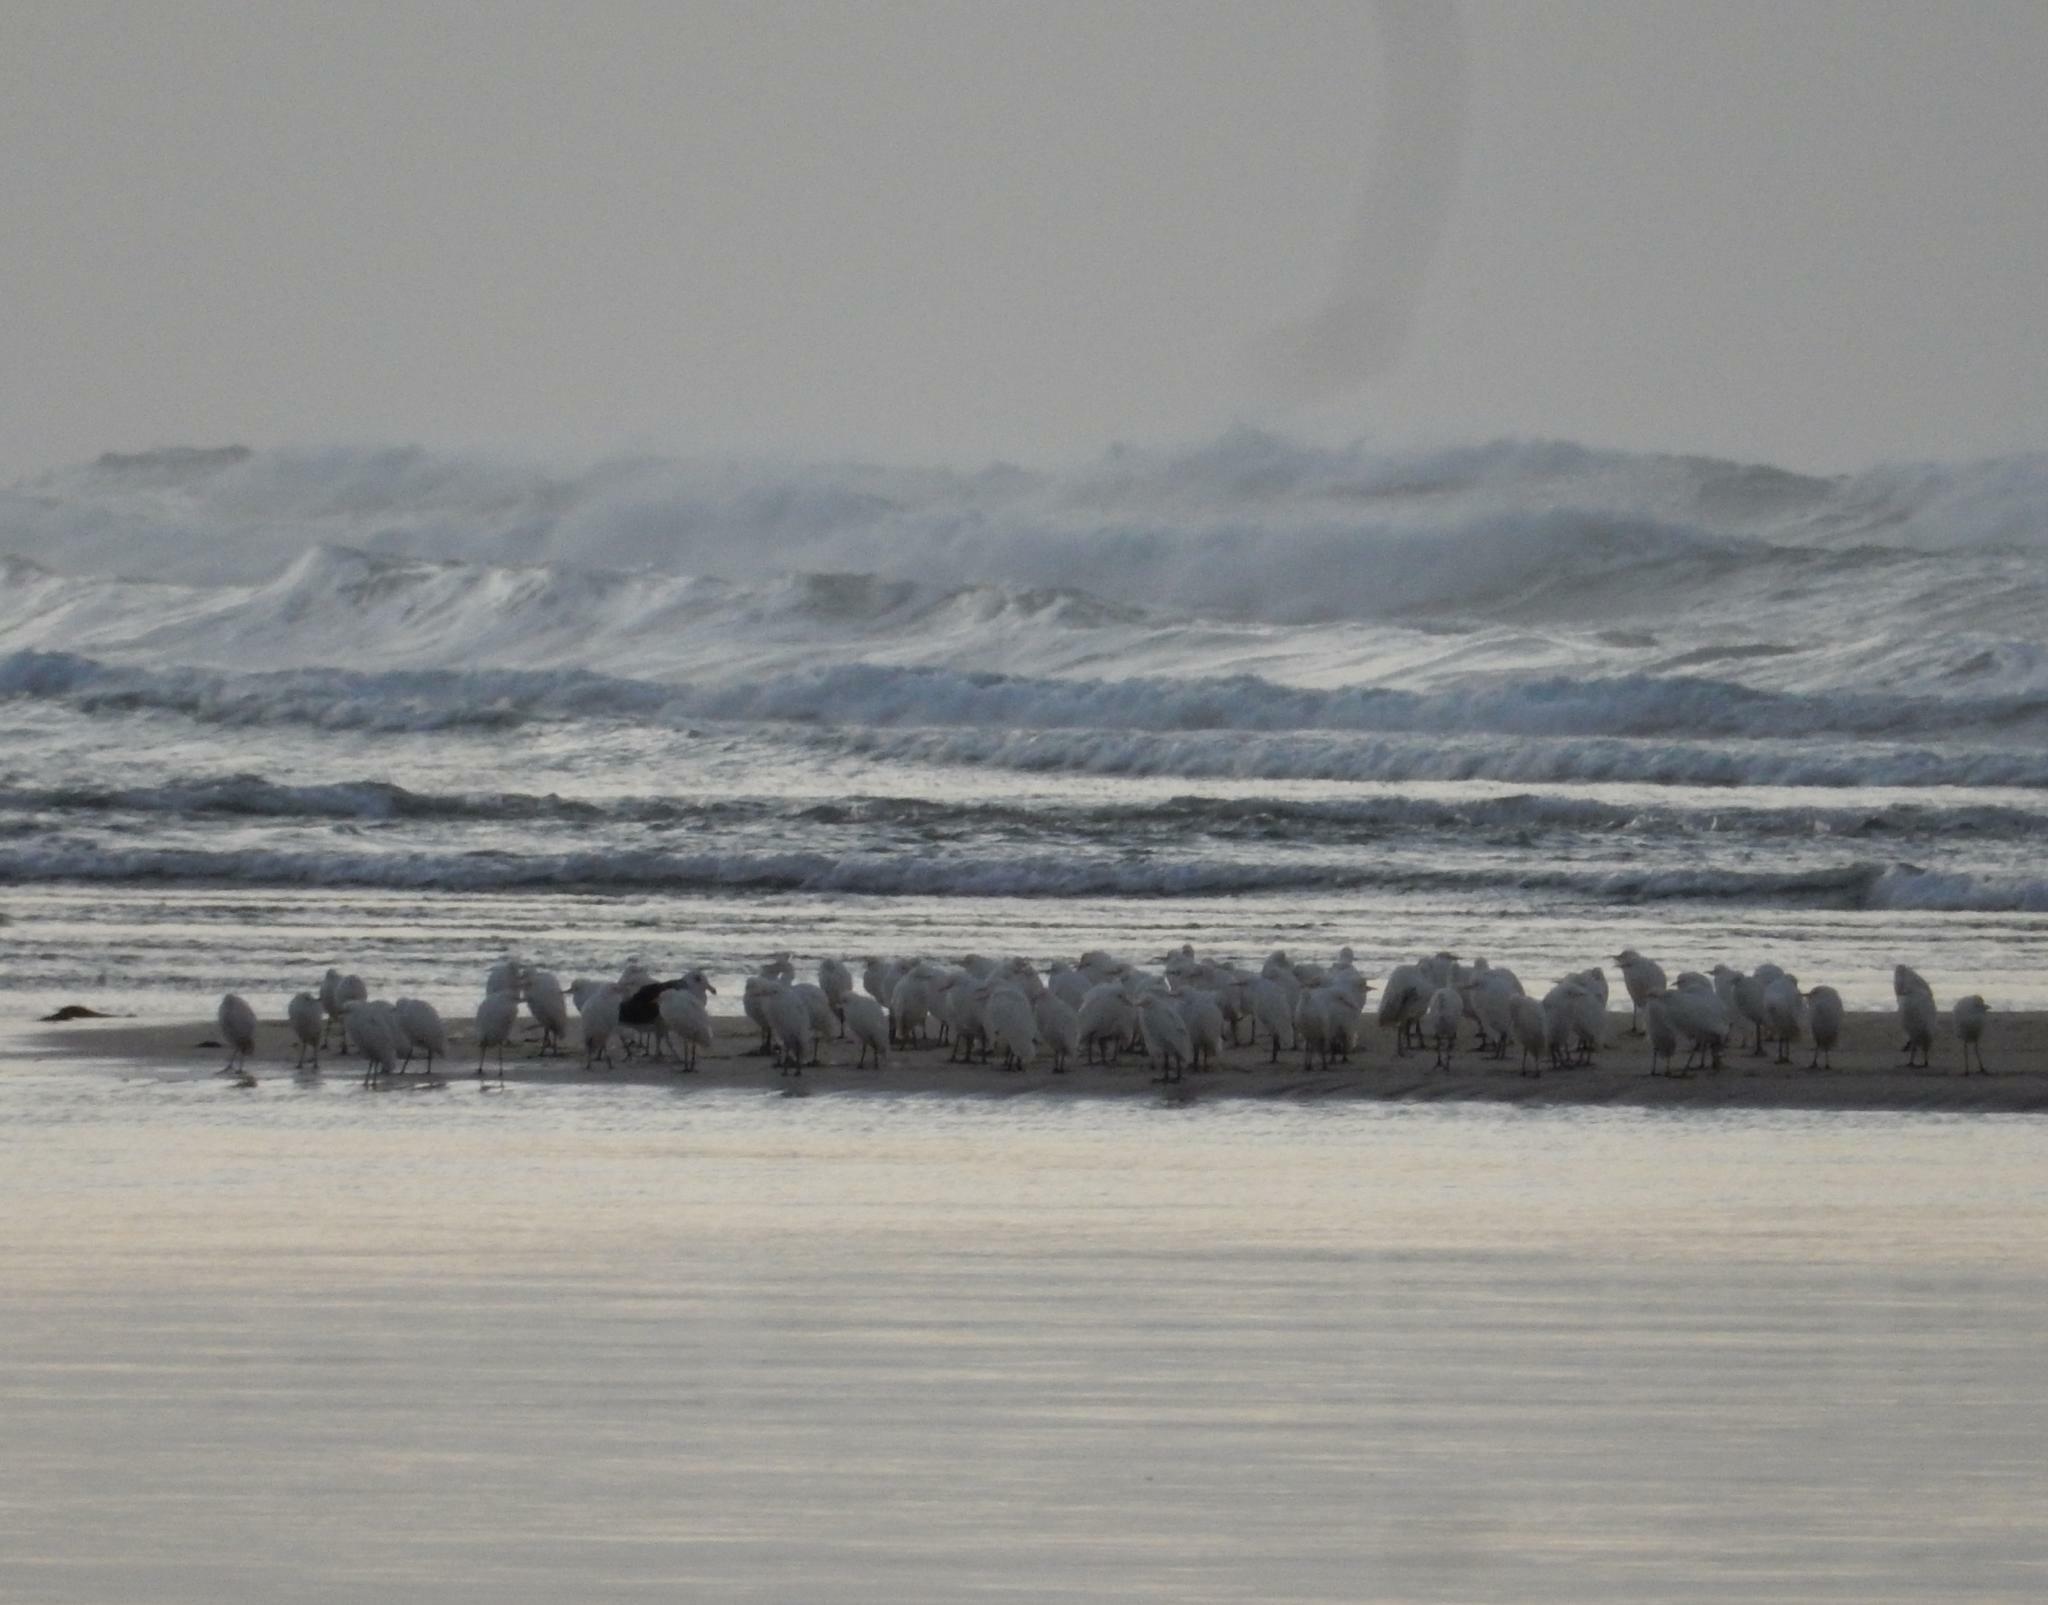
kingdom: Animalia
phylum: Chordata
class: Aves
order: Pelecaniformes
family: Ardeidae
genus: Bubulcus
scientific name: Bubulcus ibis
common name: Cattle egret
